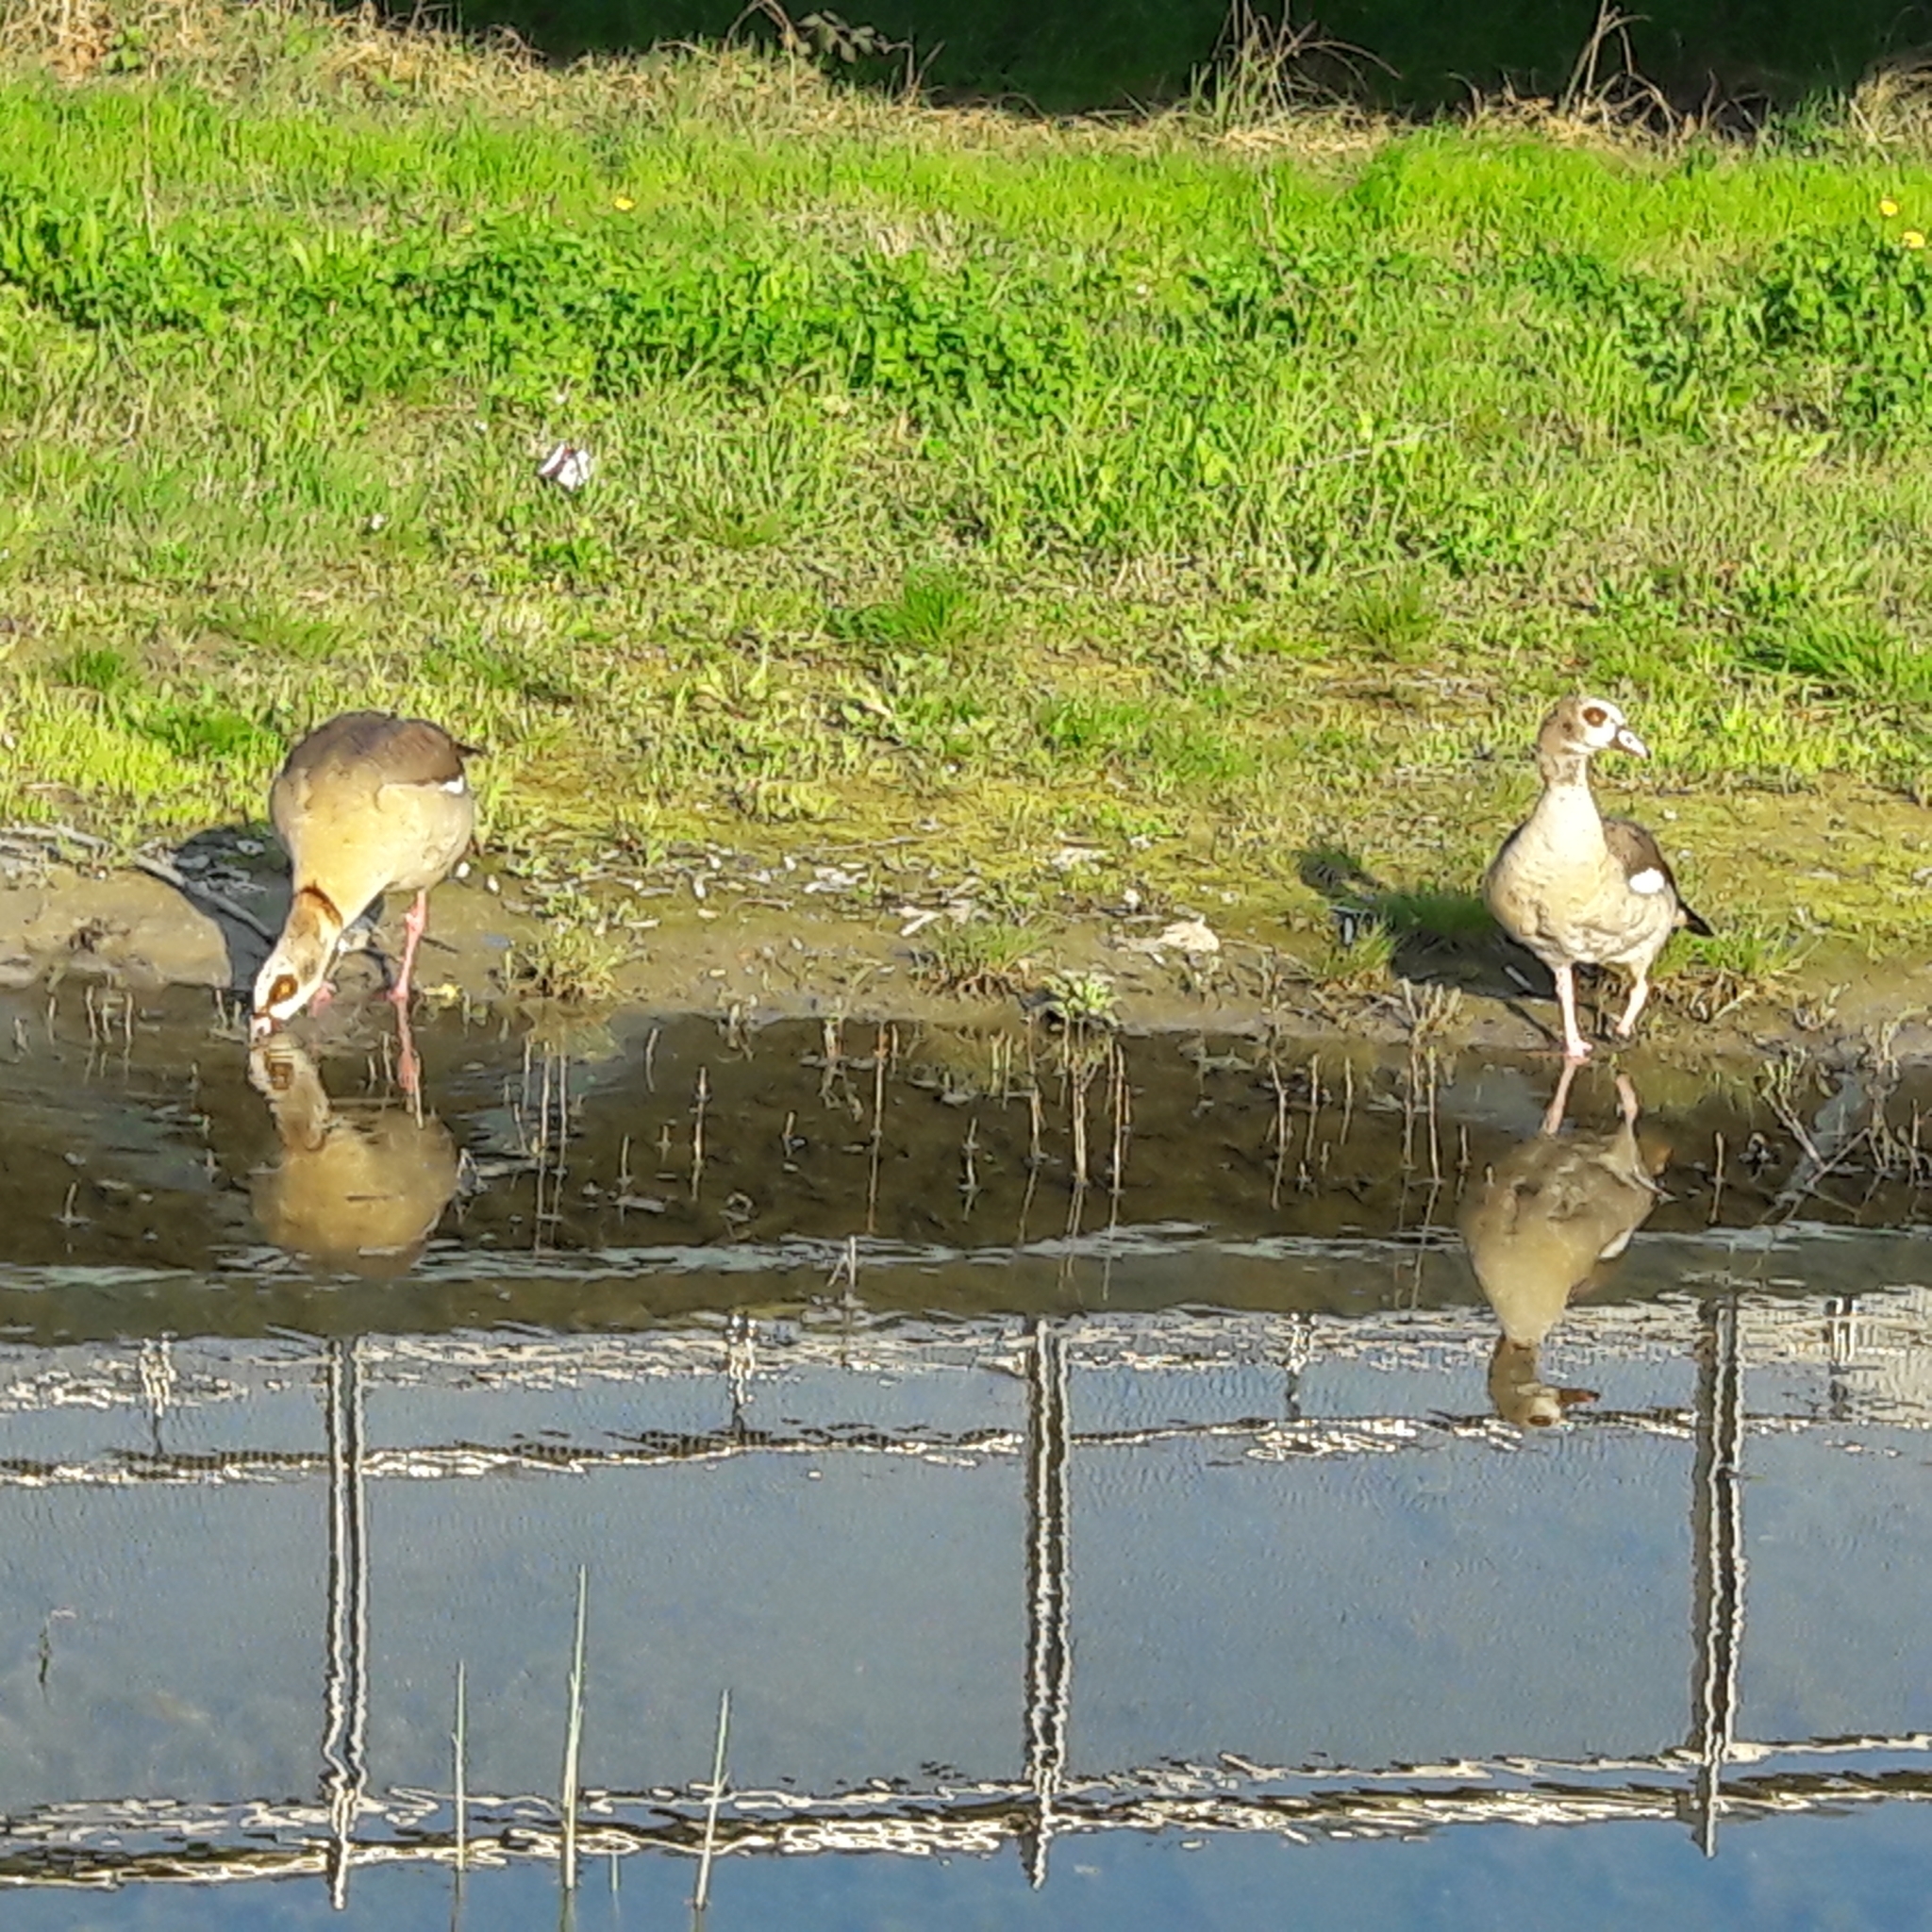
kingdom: Animalia
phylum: Chordata
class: Aves
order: Anseriformes
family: Anatidae
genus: Alopochen
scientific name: Alopochen aegyptiaca
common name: Egyptian goose
